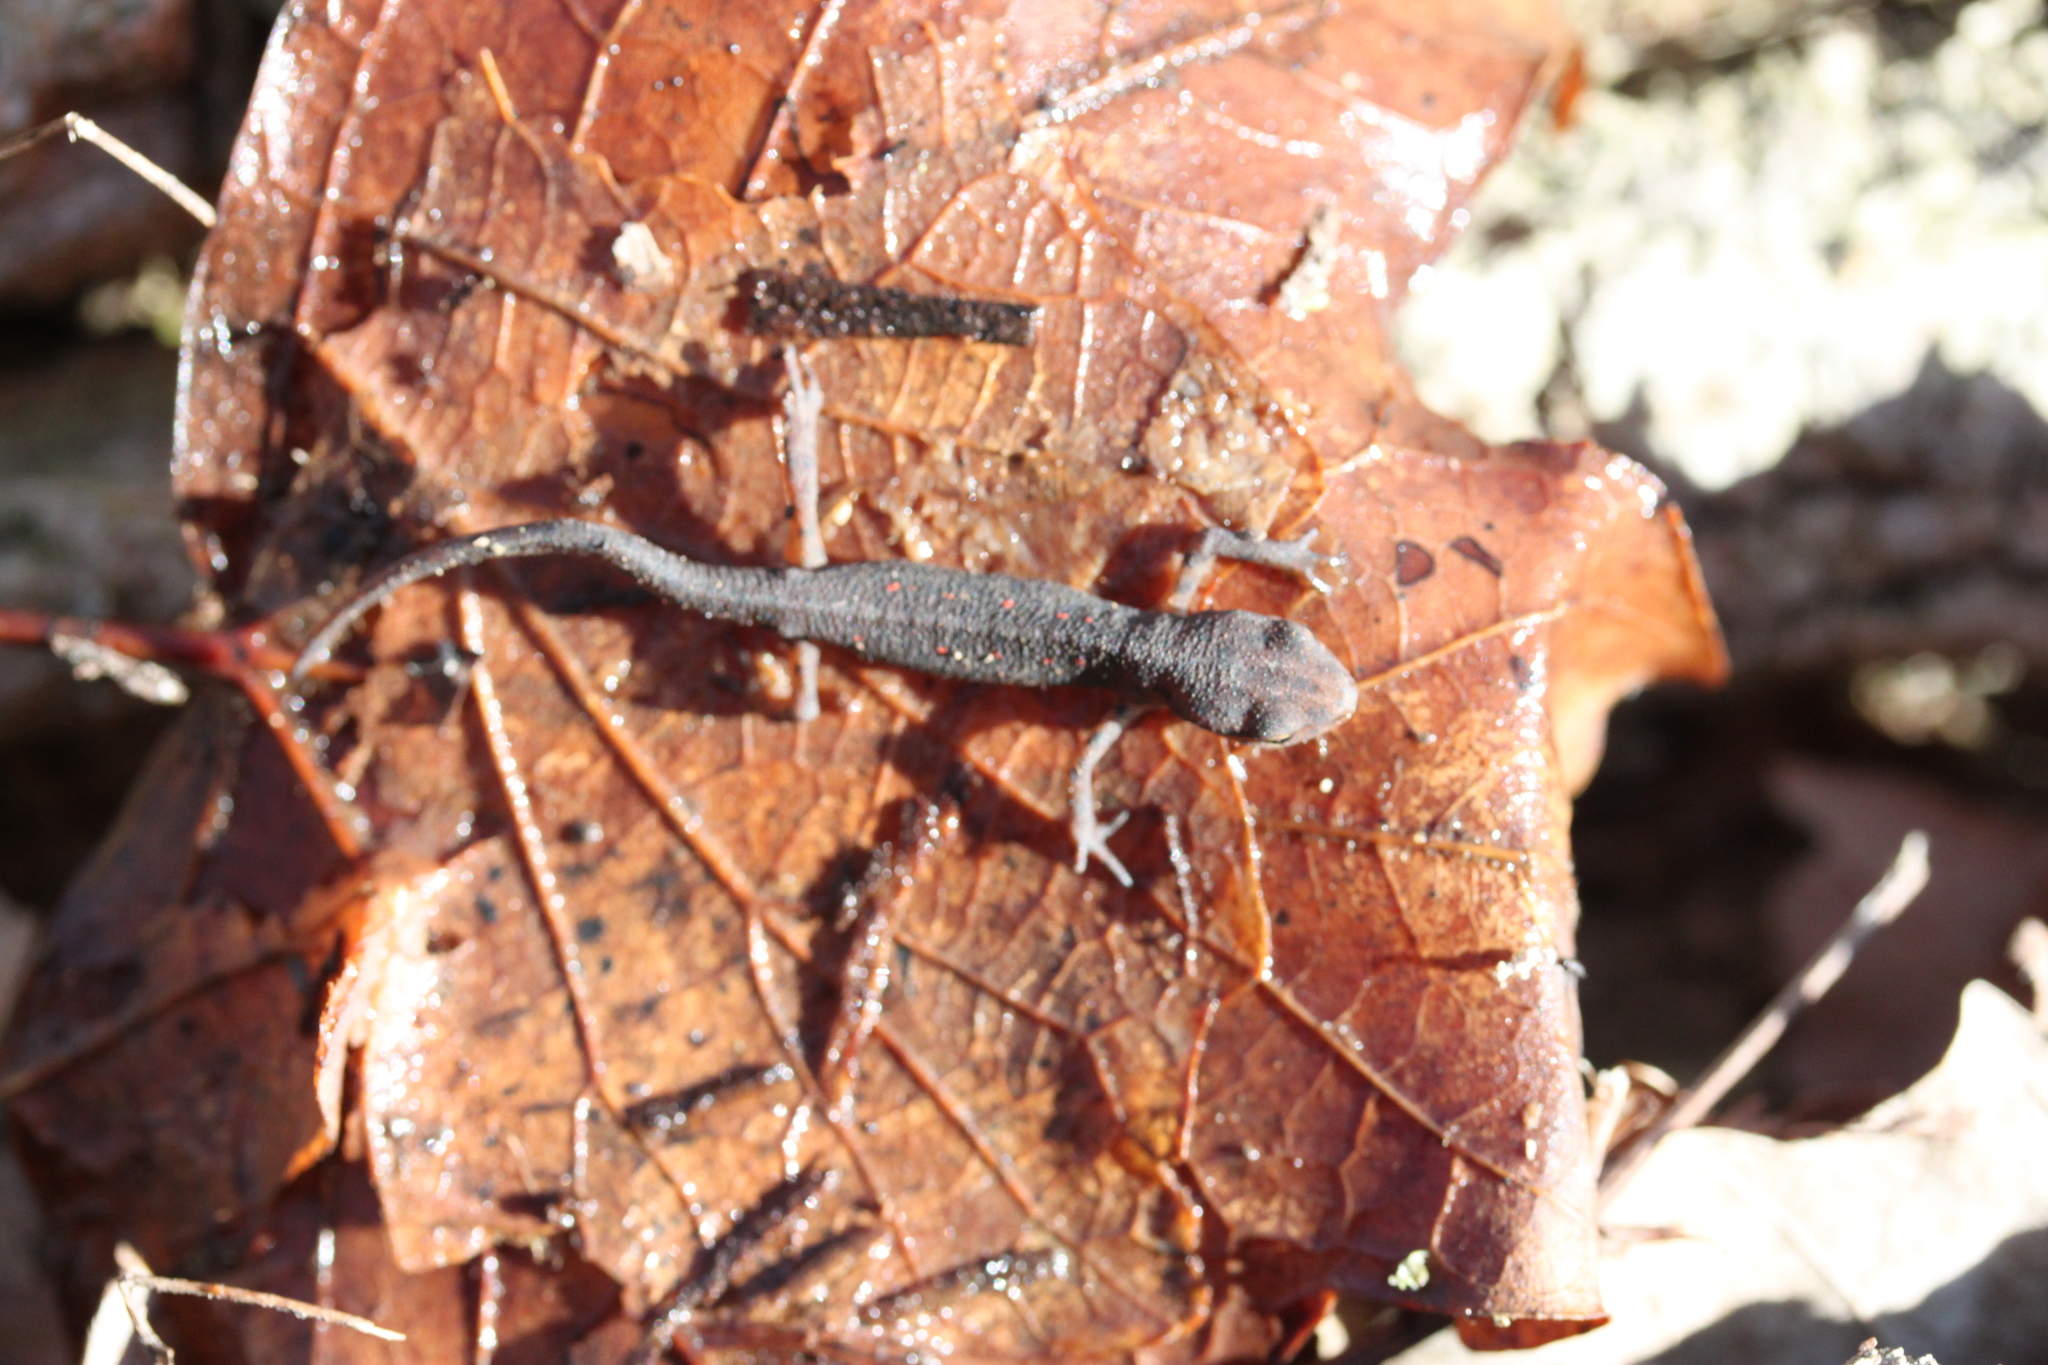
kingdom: Animalia
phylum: Chordata
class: Amphibia
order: Caudata
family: Salamandridae
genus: Notophthalmus
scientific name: Notophthalmus viridescens
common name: Eastern newt
